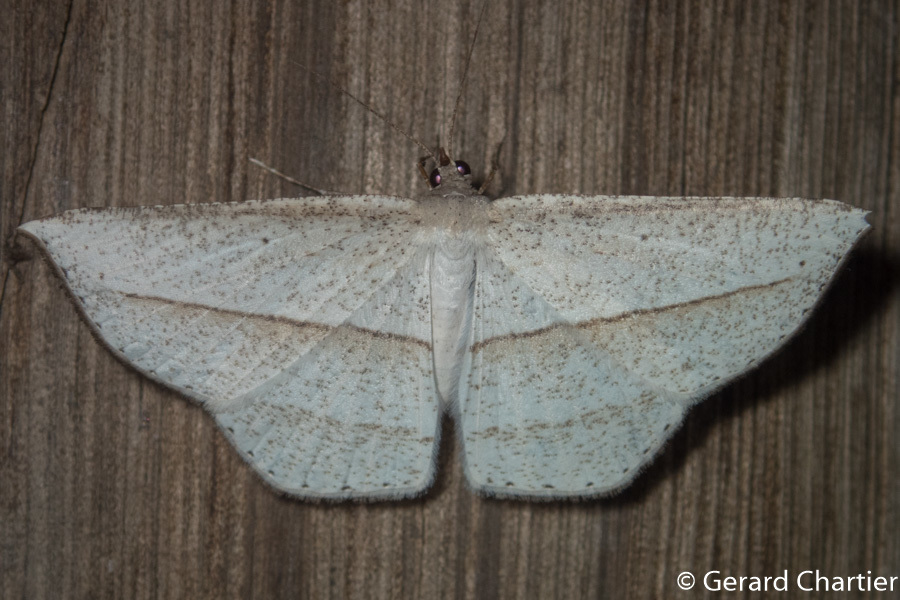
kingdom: Animalia
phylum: Arthropoda
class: Insecta
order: Lepidoptera
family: Geometridae
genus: Heteralex
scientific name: Heteralex rectilineata
